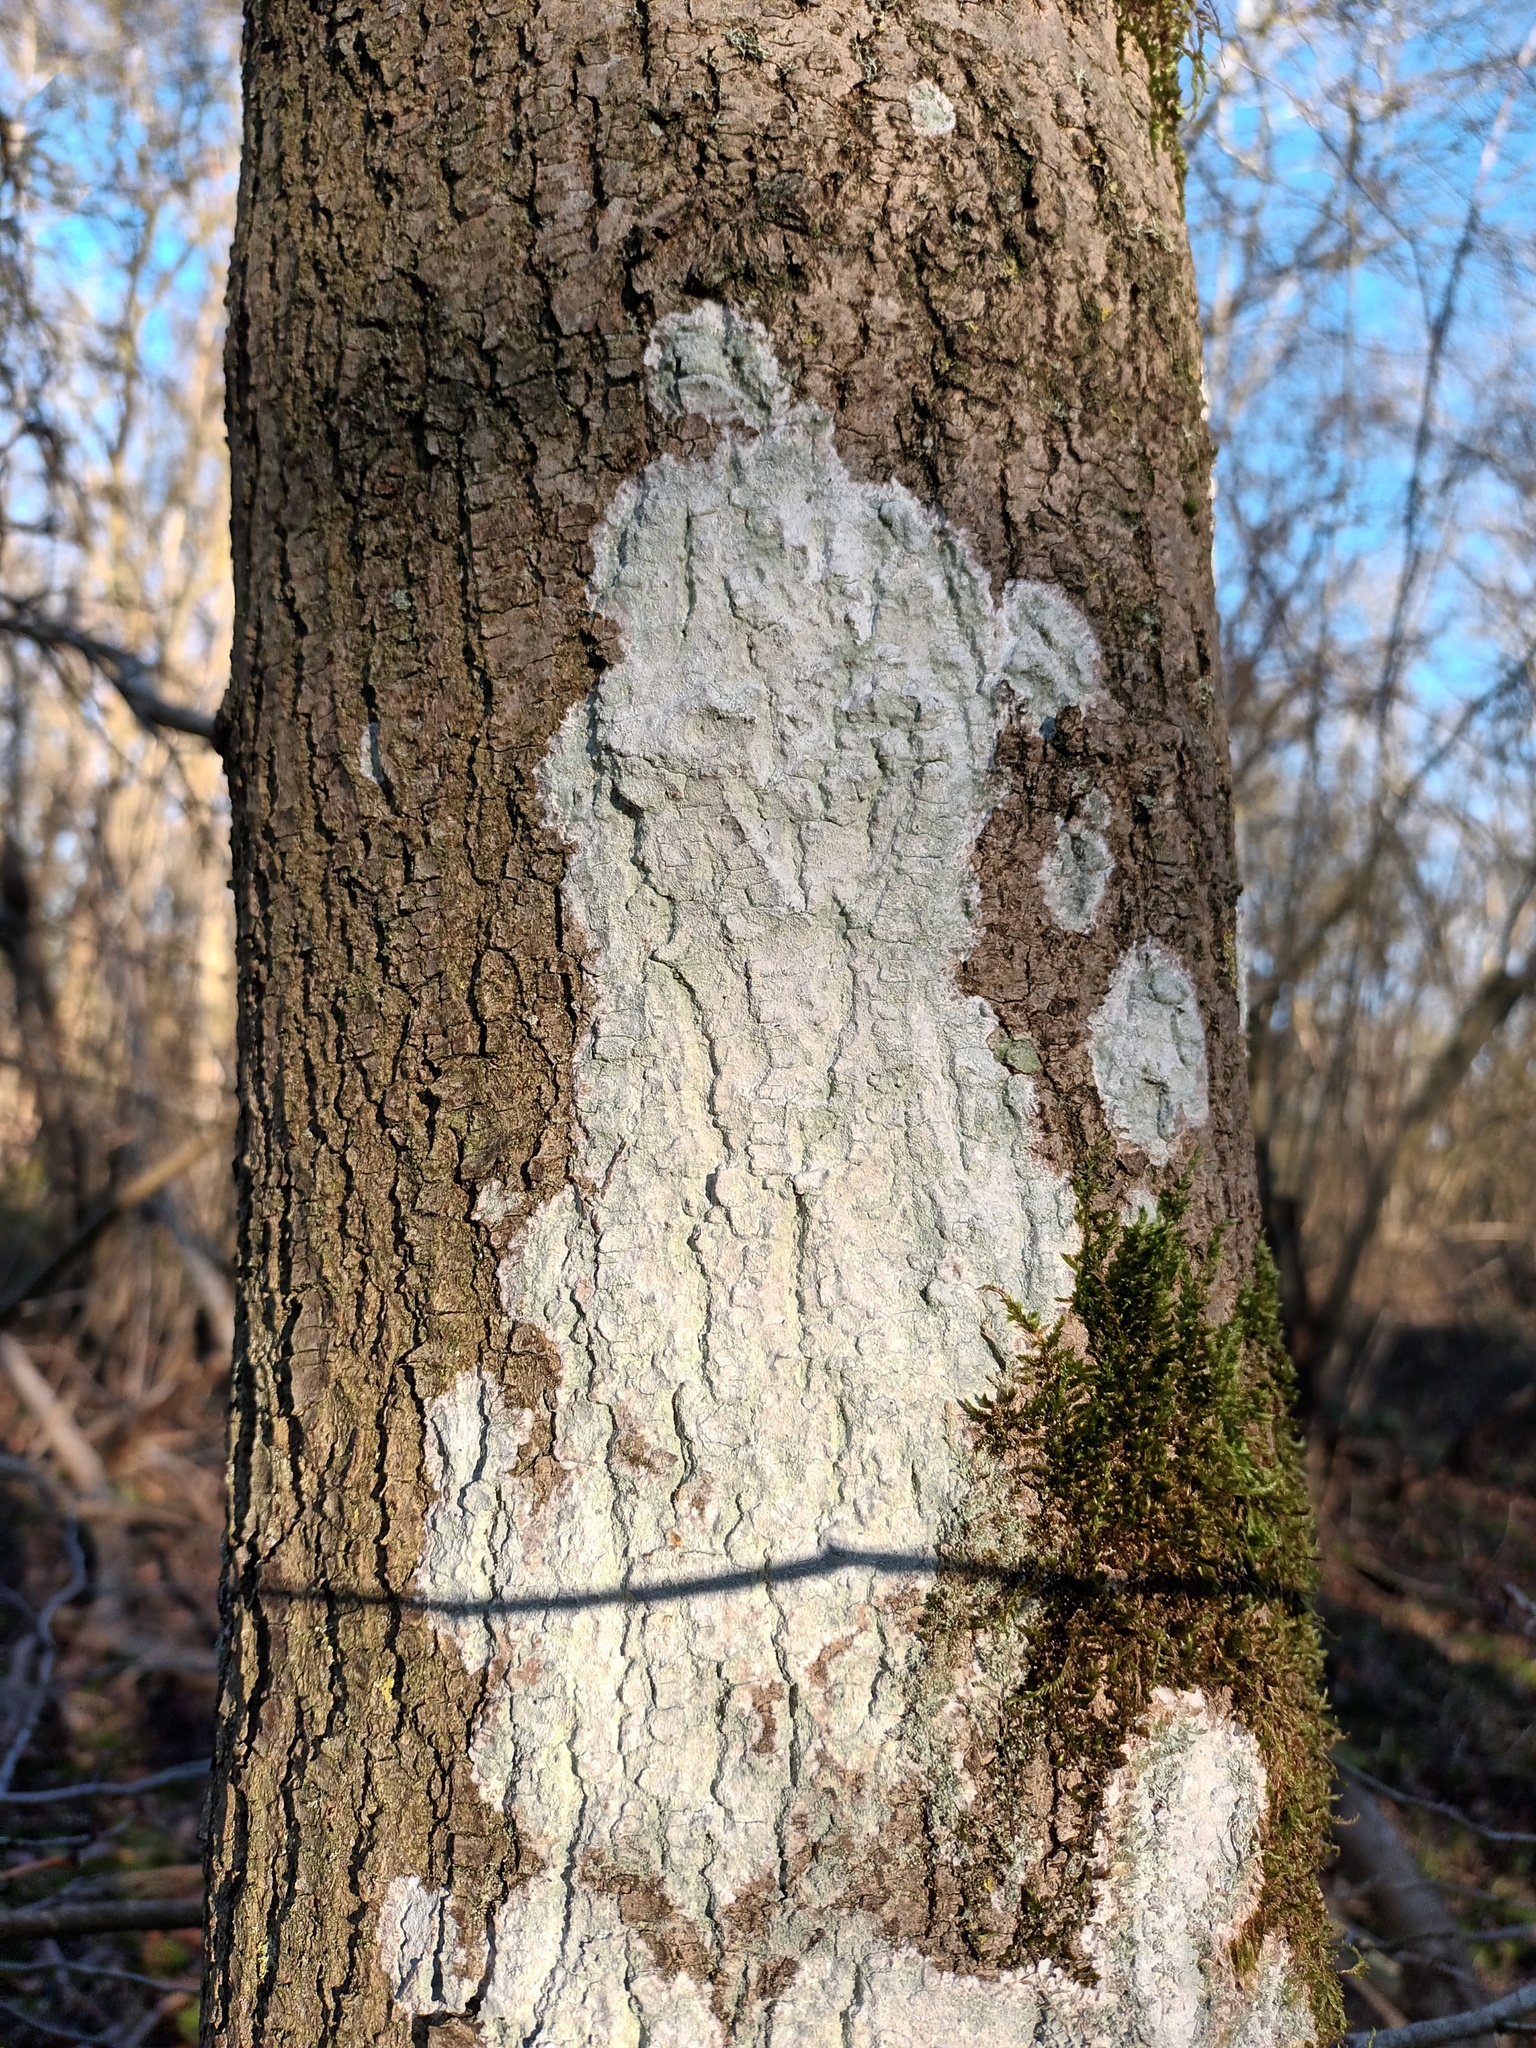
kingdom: Fungi
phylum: Ascomycota
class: Lecanoromycetes
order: Ostropales
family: Phlyctidaceae
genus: Phlyctis
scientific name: Phlyctis argena
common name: Whitewash lichen
